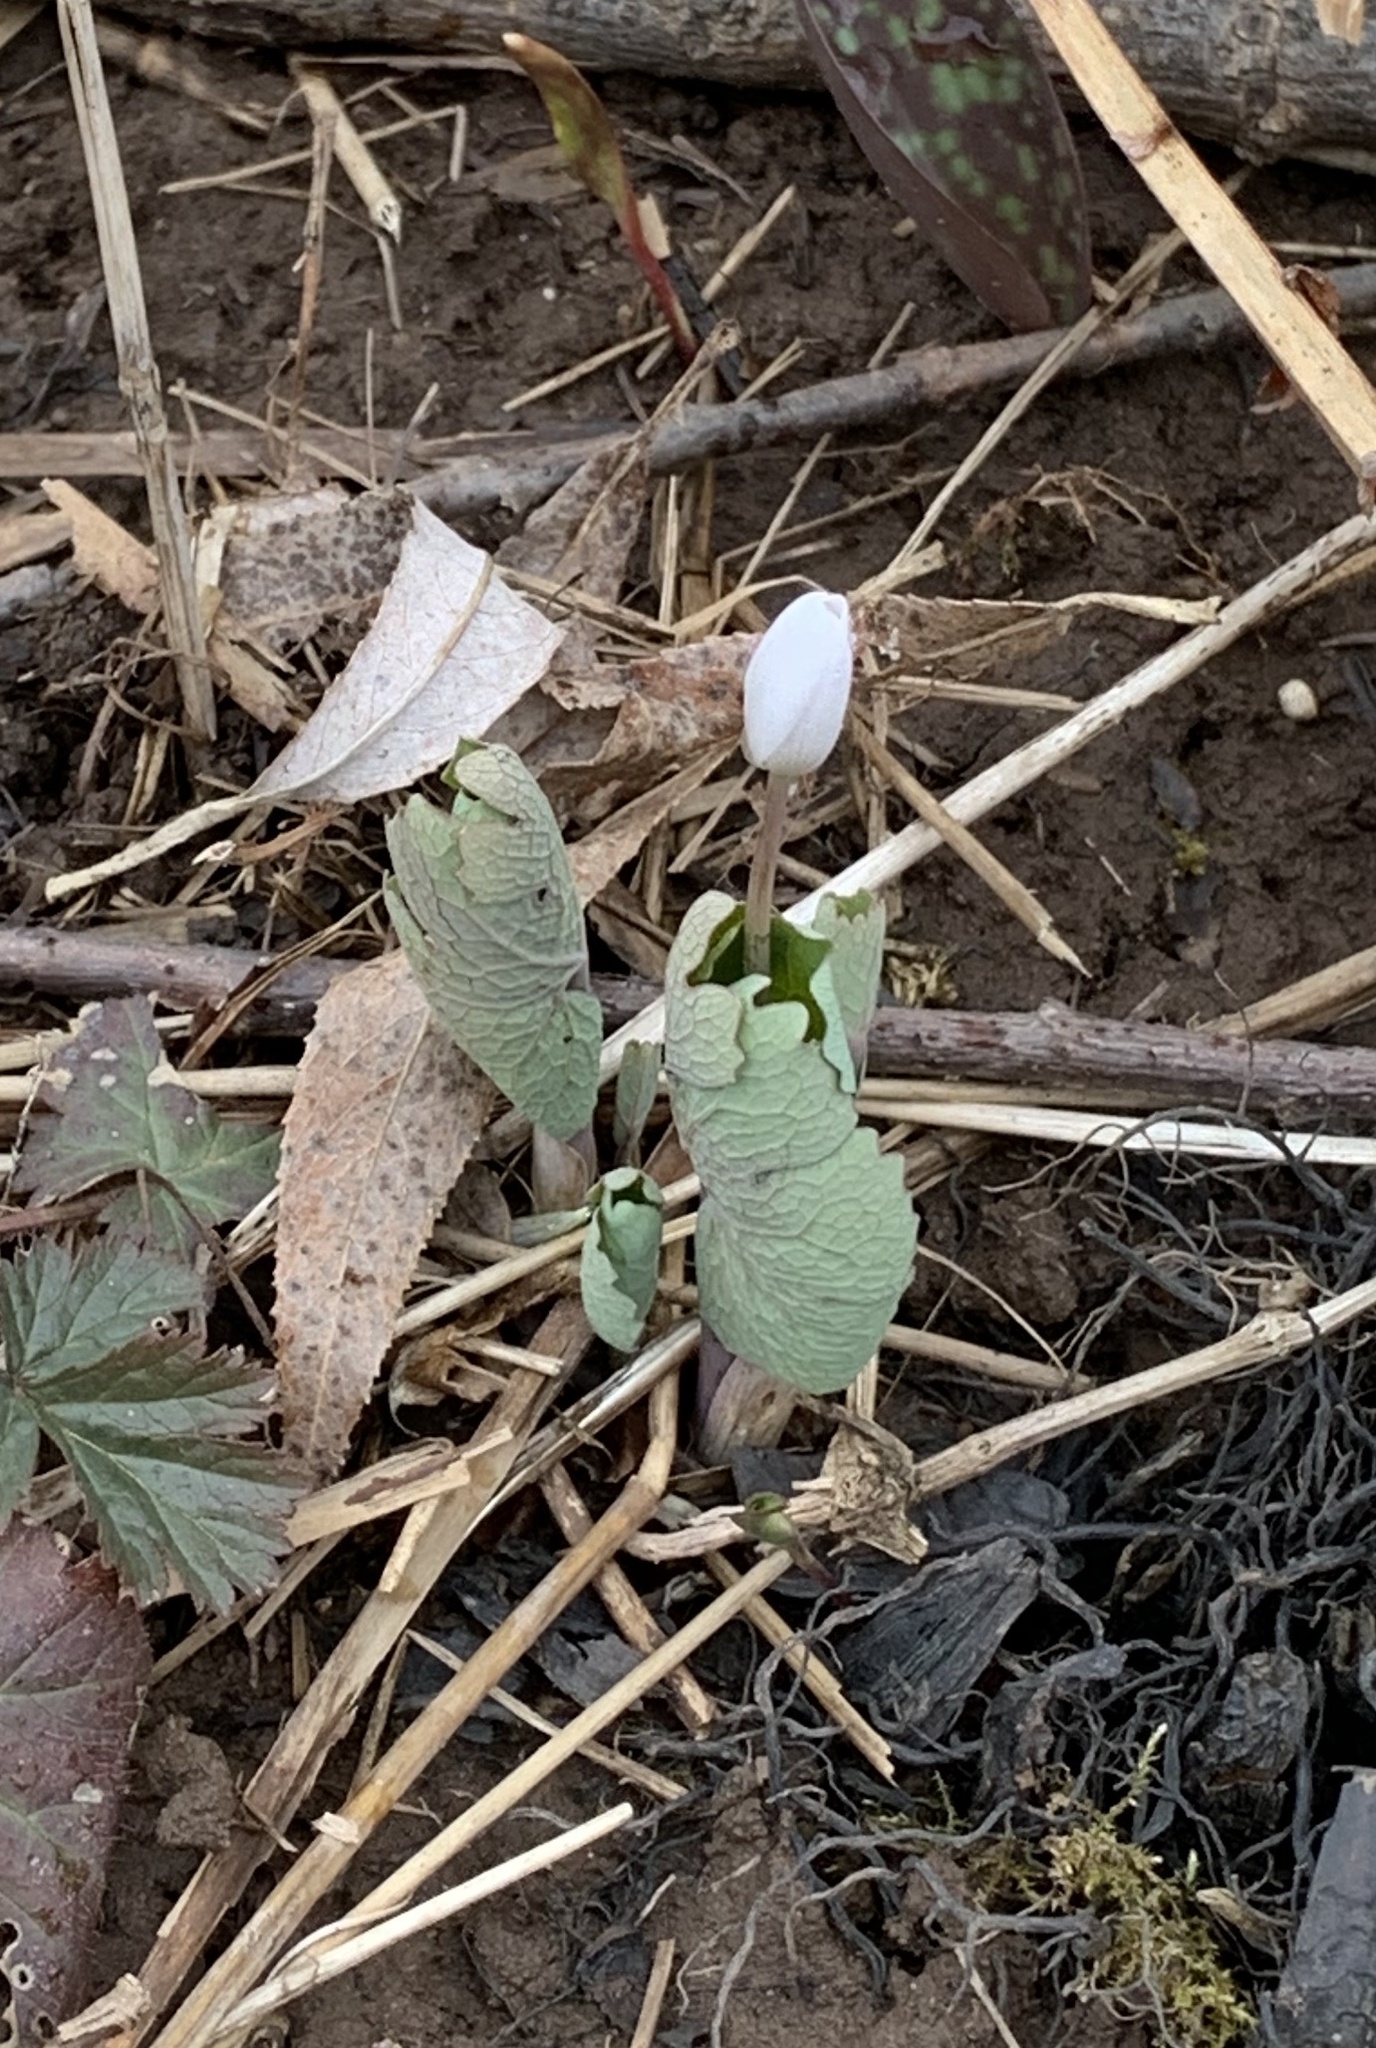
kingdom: Plantae
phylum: Tracheophyta
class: Magnoliopsida
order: Ranunculales
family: Papaveraceae
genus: Sanguinaria
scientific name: Sanguinaria canadensis
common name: Bloodroot
